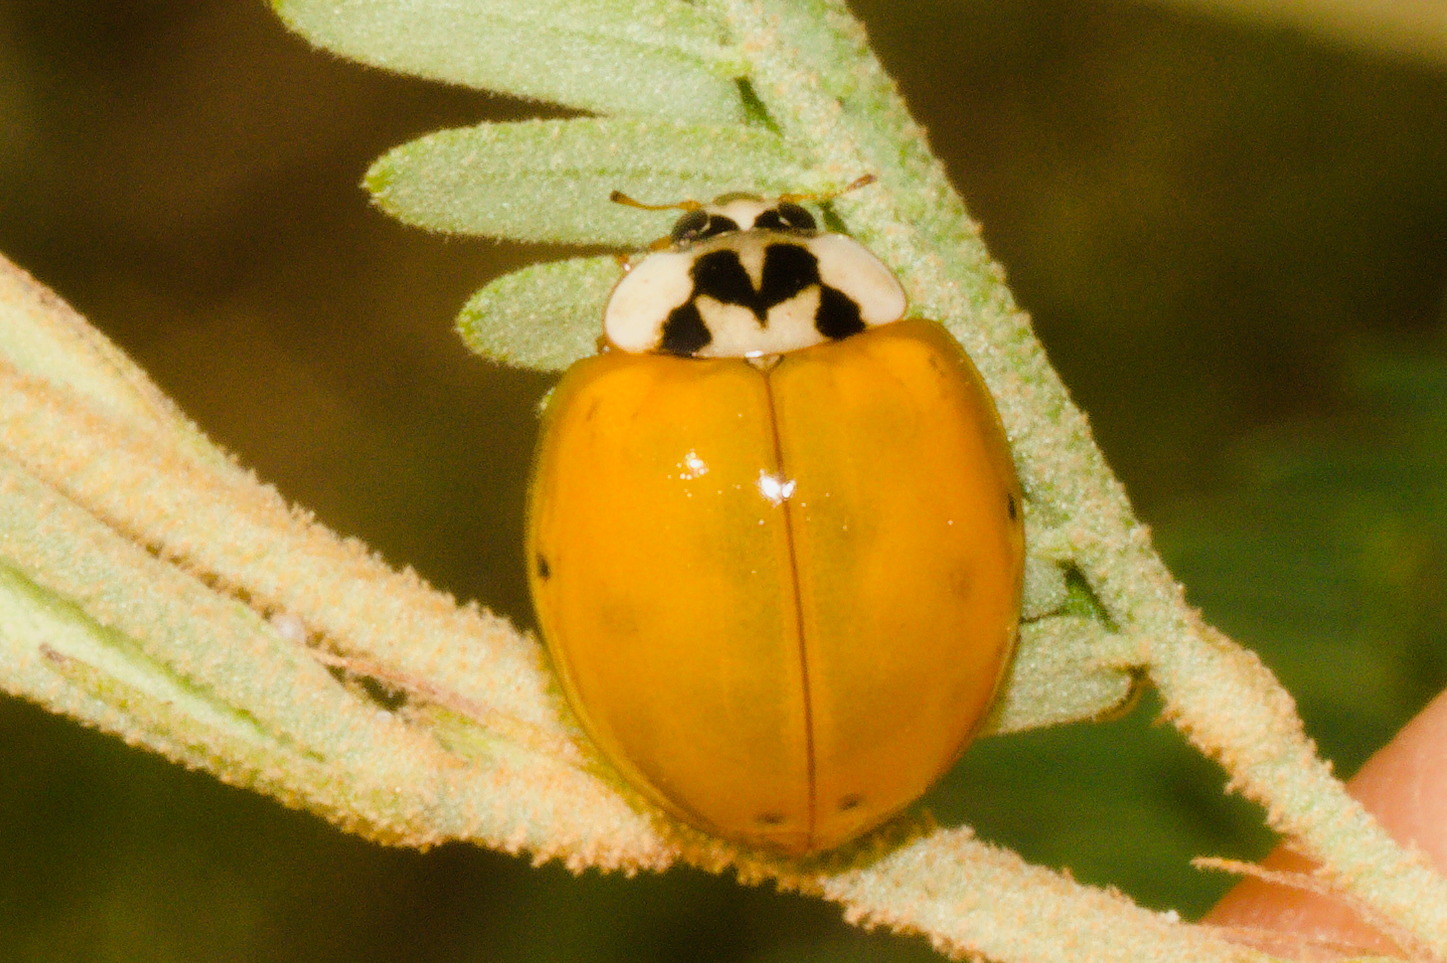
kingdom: Animalia
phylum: Arthropoda
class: Insecta
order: Coleoptera
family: Coccinellidae
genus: Harmonia
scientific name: Harmonia axyridis
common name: Harlequin ladybird
